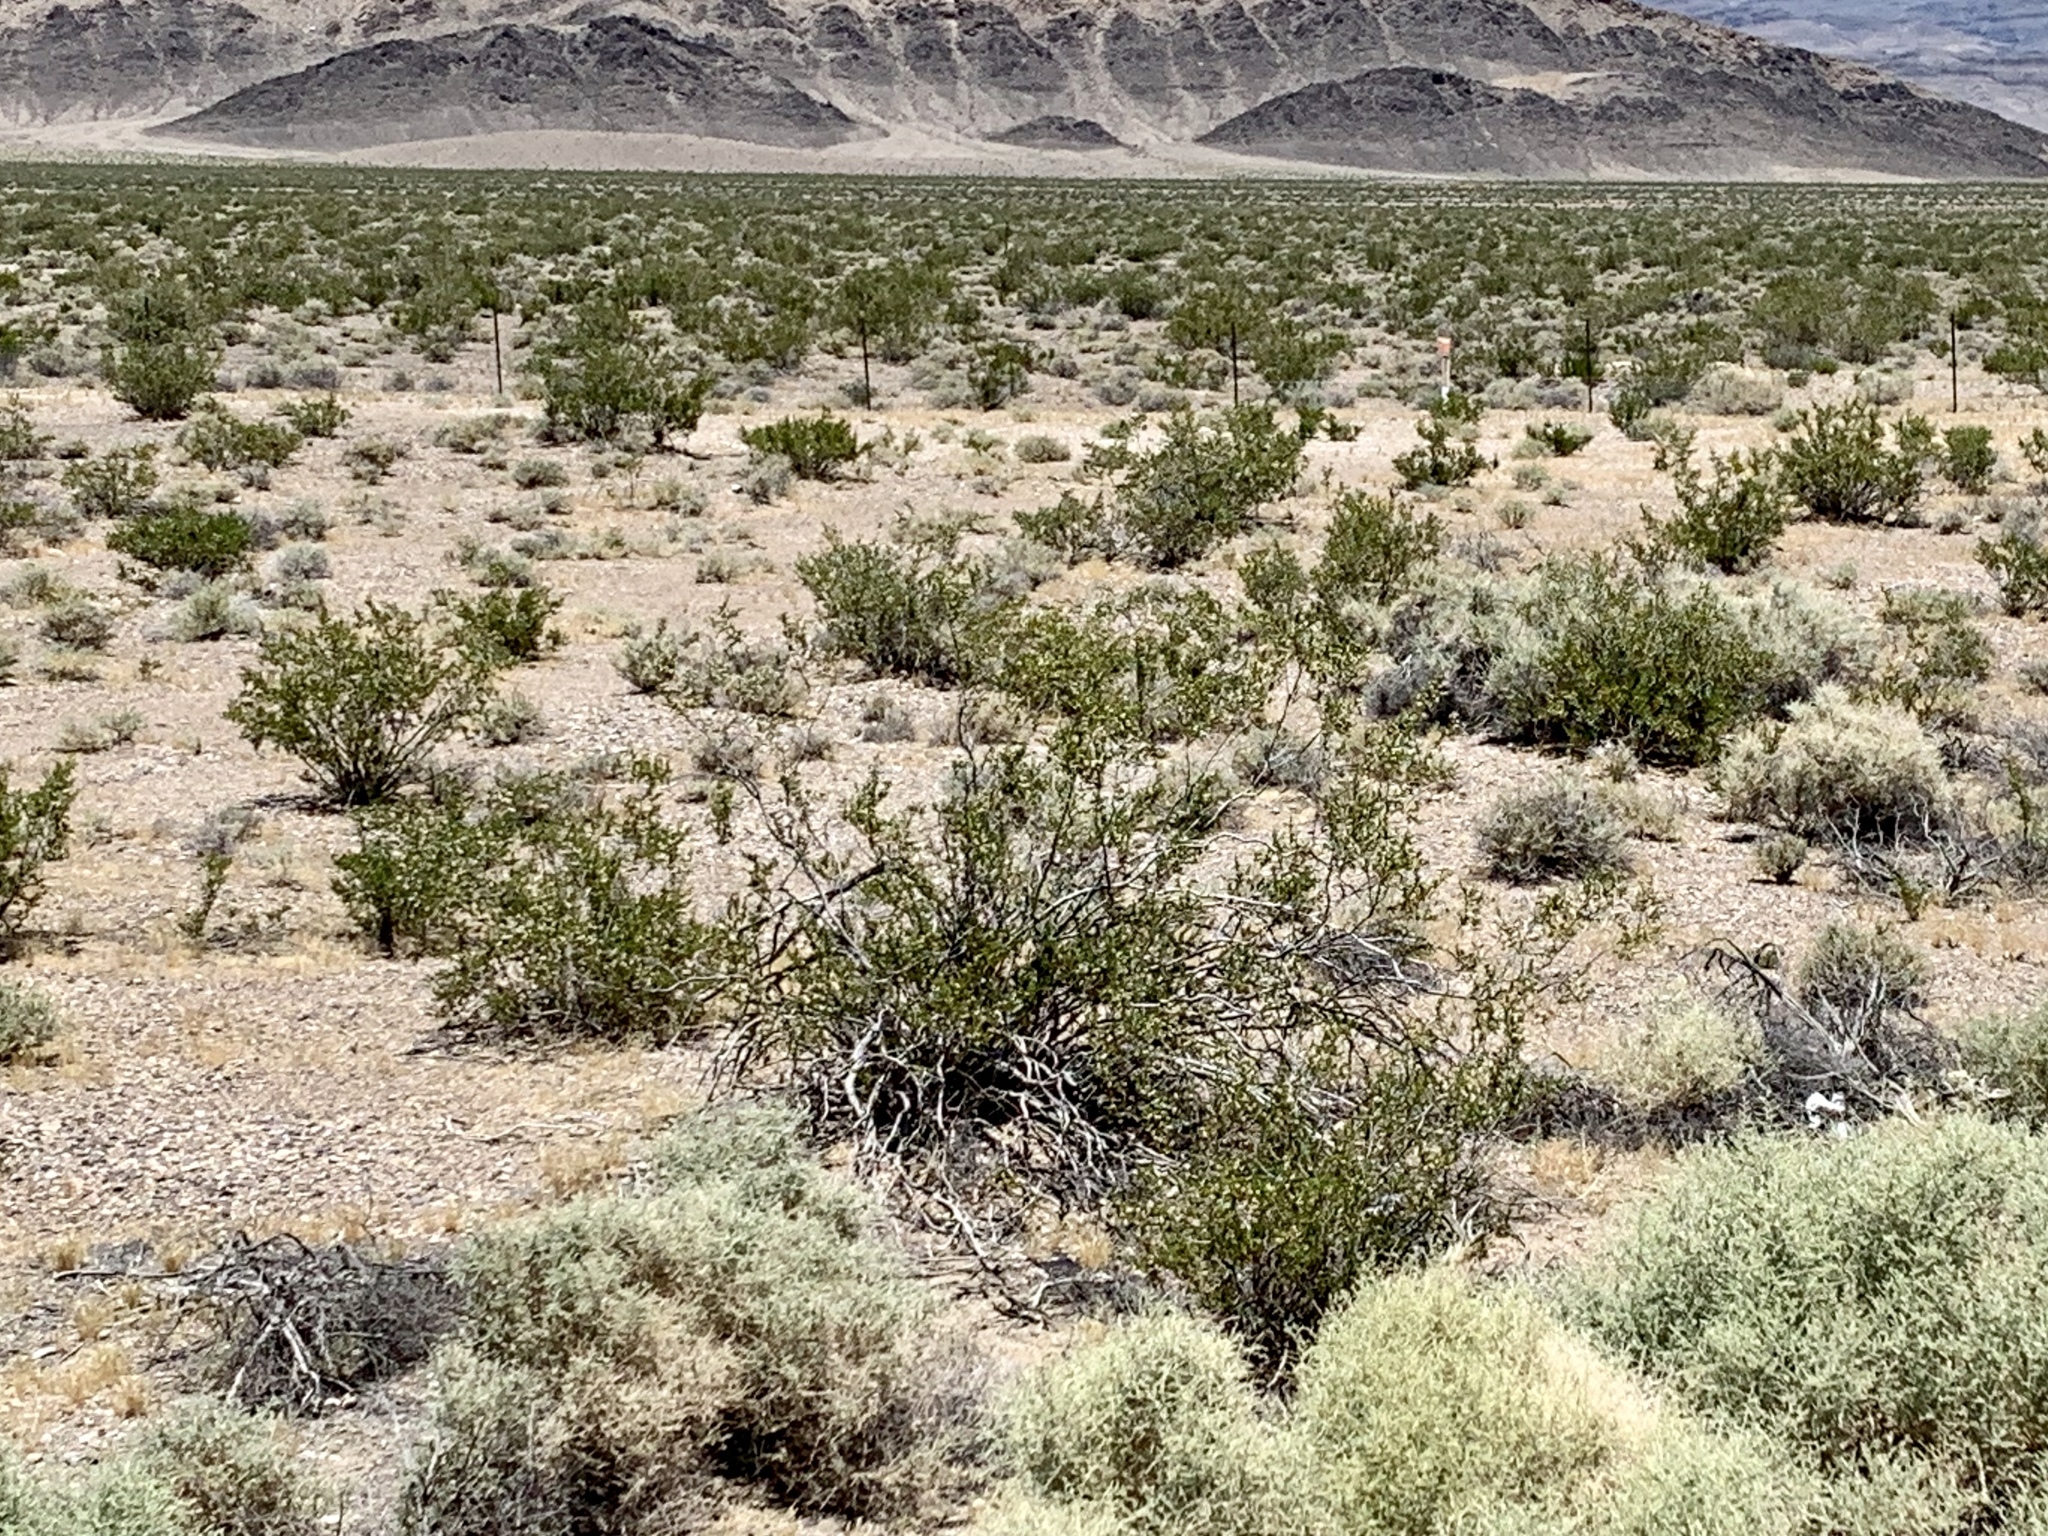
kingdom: Plantae
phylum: Tracheophyta
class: Magnoliopsida
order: Zygophyllales
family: Zygophyllaceae
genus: Larrea
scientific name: Larrea tridentata
